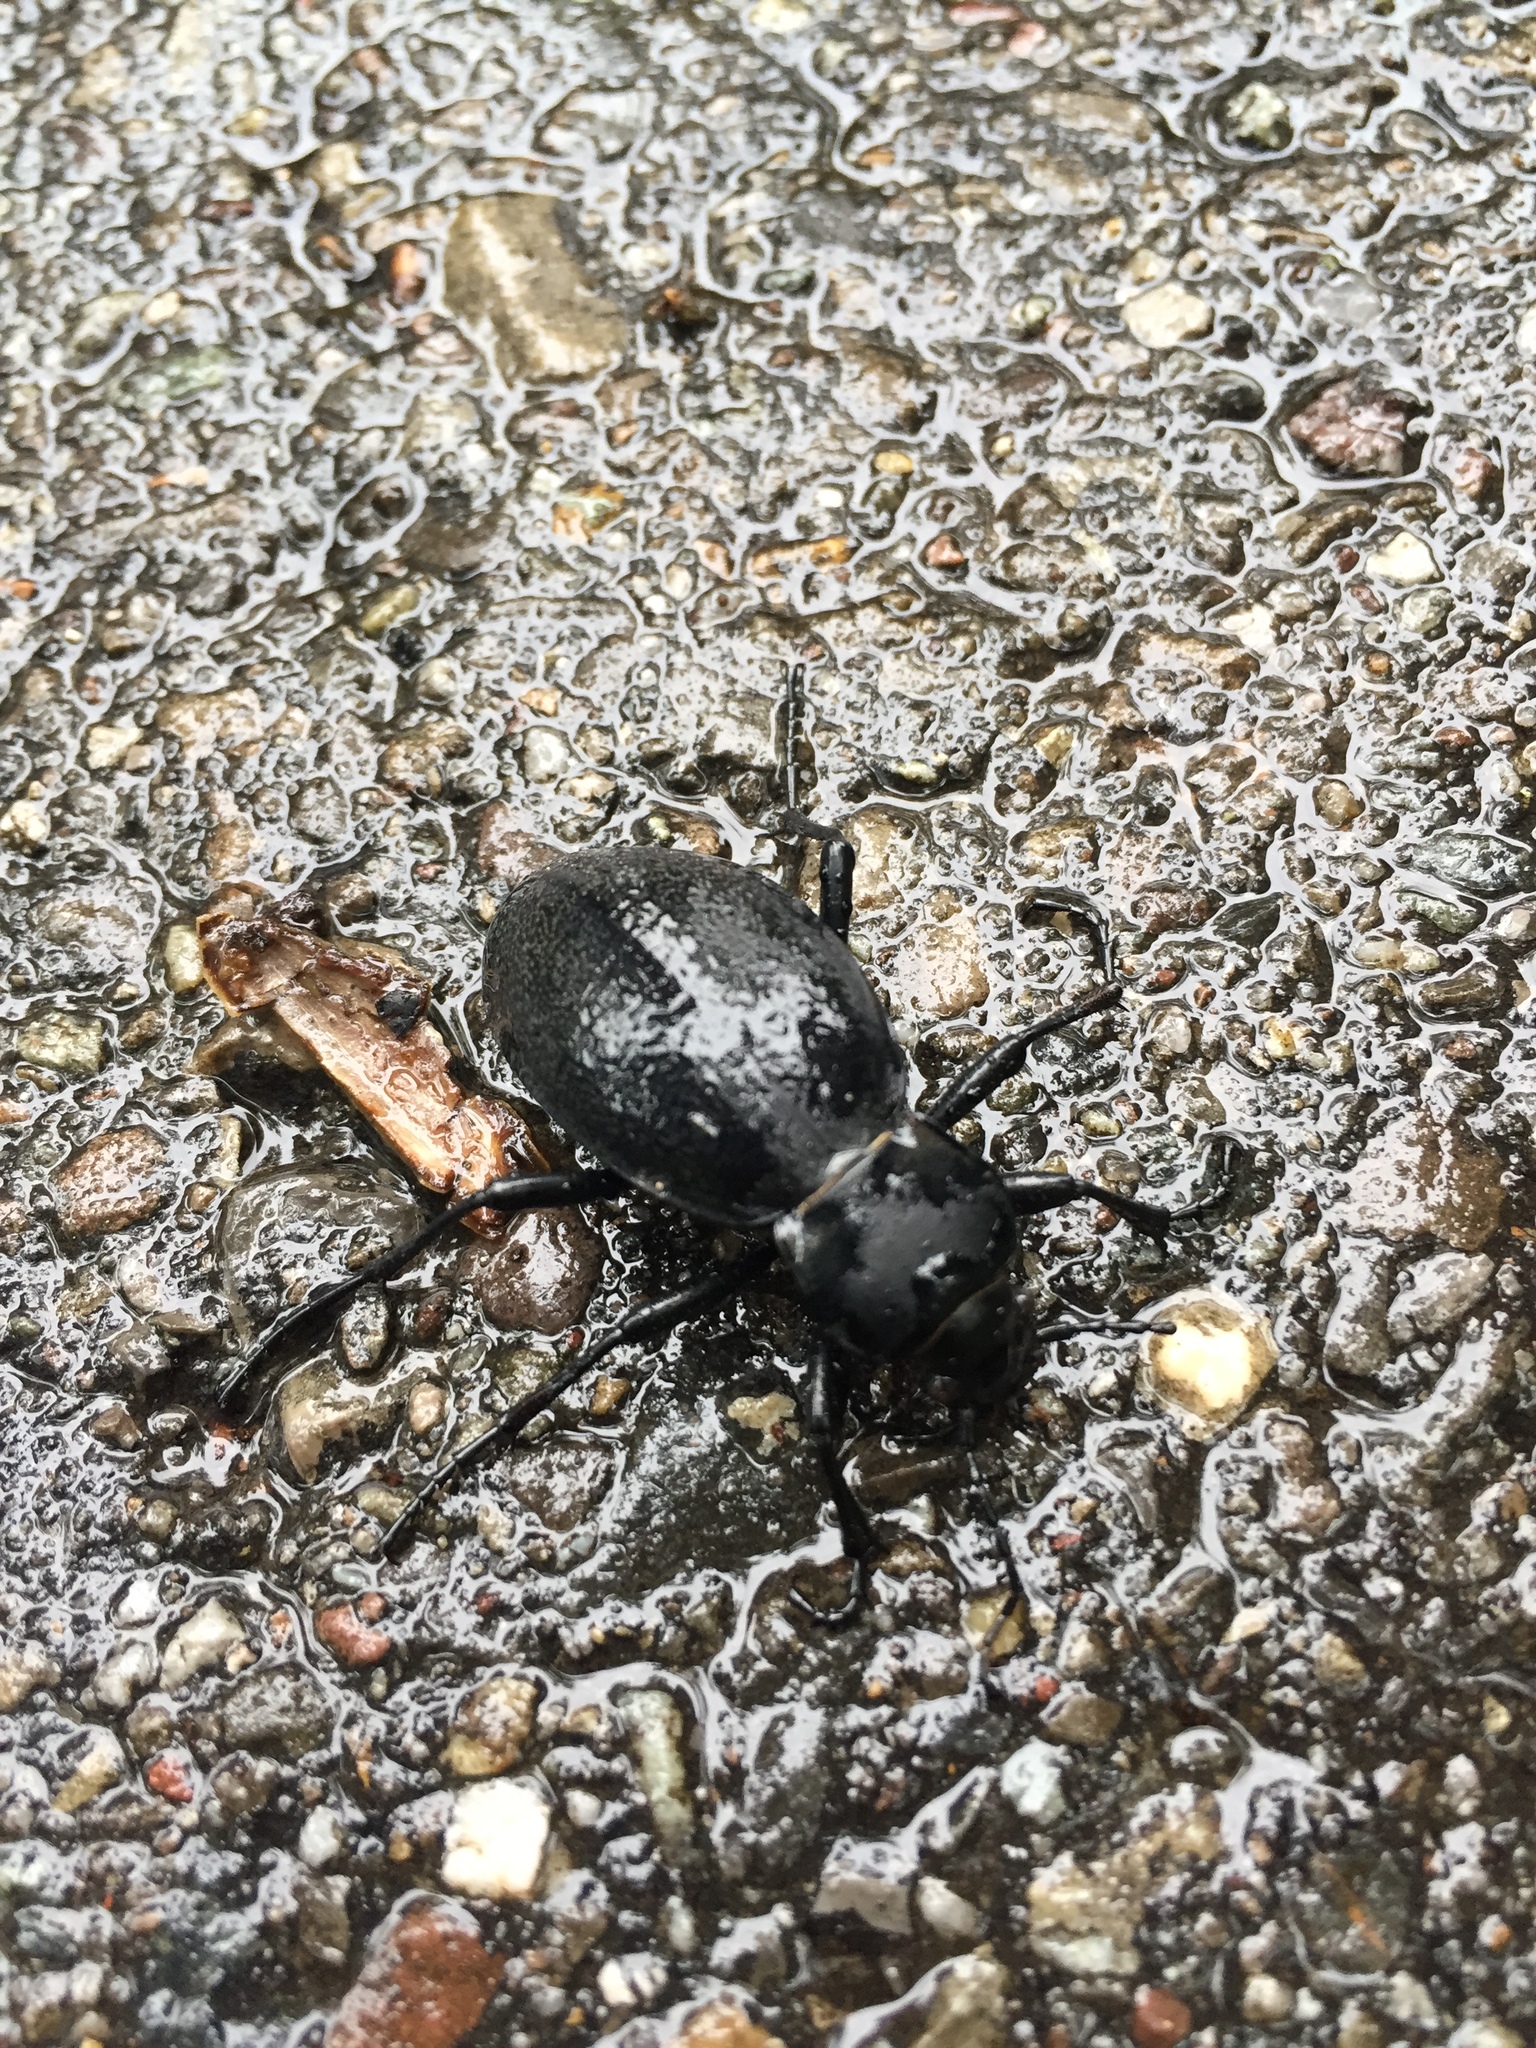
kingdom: Animalia
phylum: Arthropoda
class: Insecta
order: Coleoptera
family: Carabidae
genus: Carabus
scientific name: Carabus coriaceus
